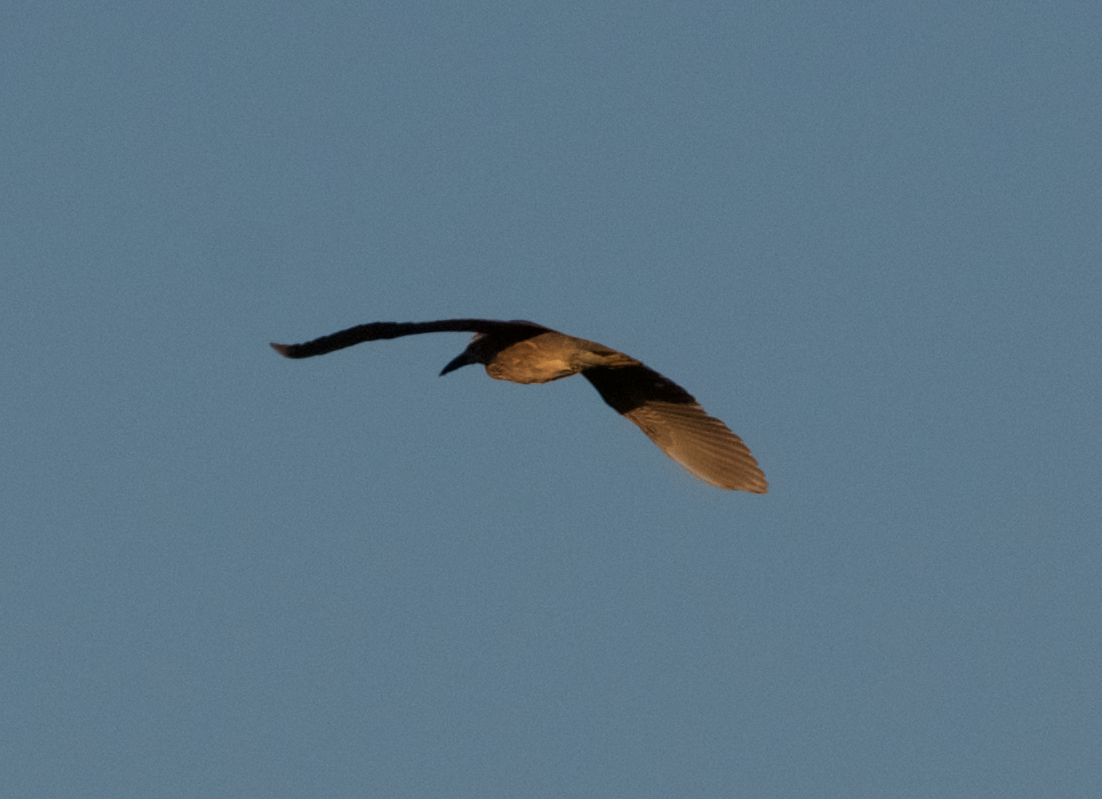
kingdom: Animalia
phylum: Chordata
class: Aves
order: Pelecaniformes
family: Ardeidae
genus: Nycticorax
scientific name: Nycticorax nycticorax
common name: Black-crowned night heron
